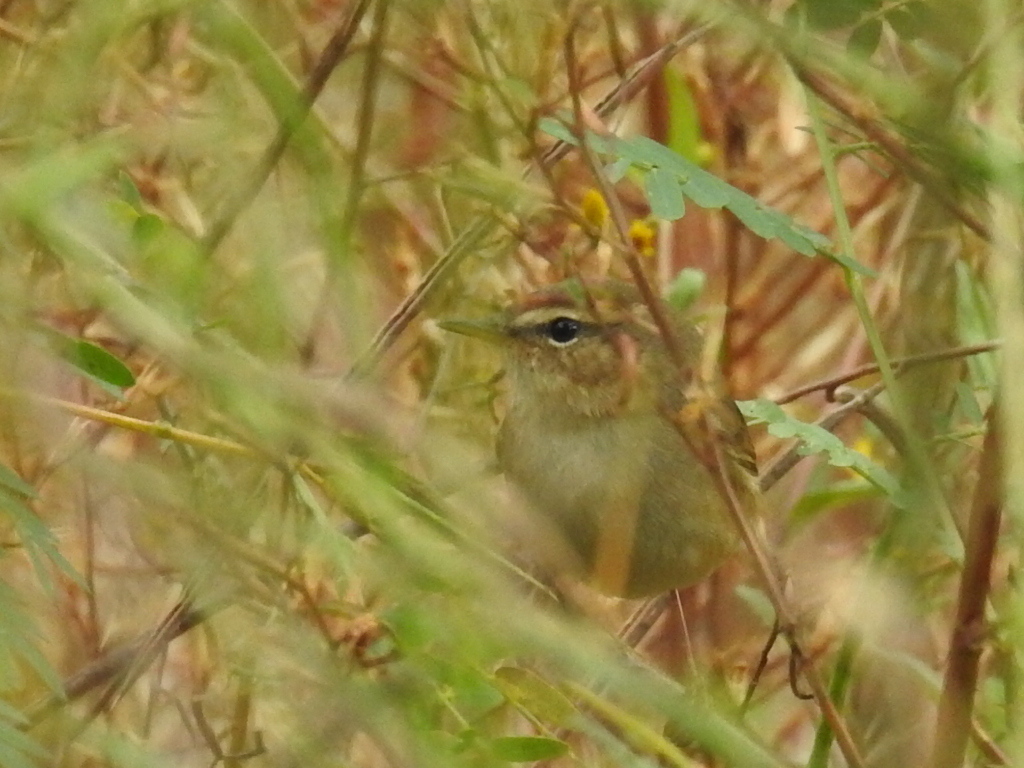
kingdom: Animalia
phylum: Chordata
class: Aves
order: Passeriformes
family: Cettiidae
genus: Horornis
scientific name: Horornis diphone
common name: Japanese bush warbler
